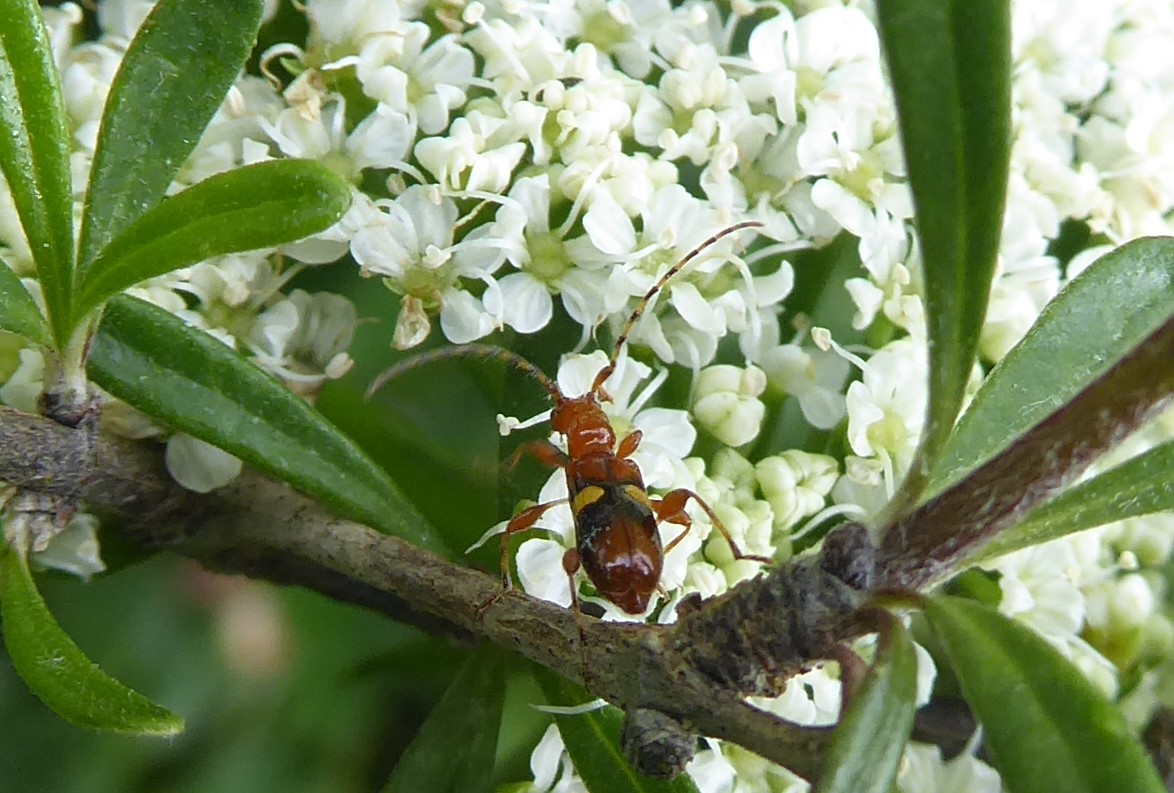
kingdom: Animalia
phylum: Arthropoda
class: Insecta
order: Coleoptera
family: Cerambycidae
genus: Zorion
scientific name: Zorion australe
